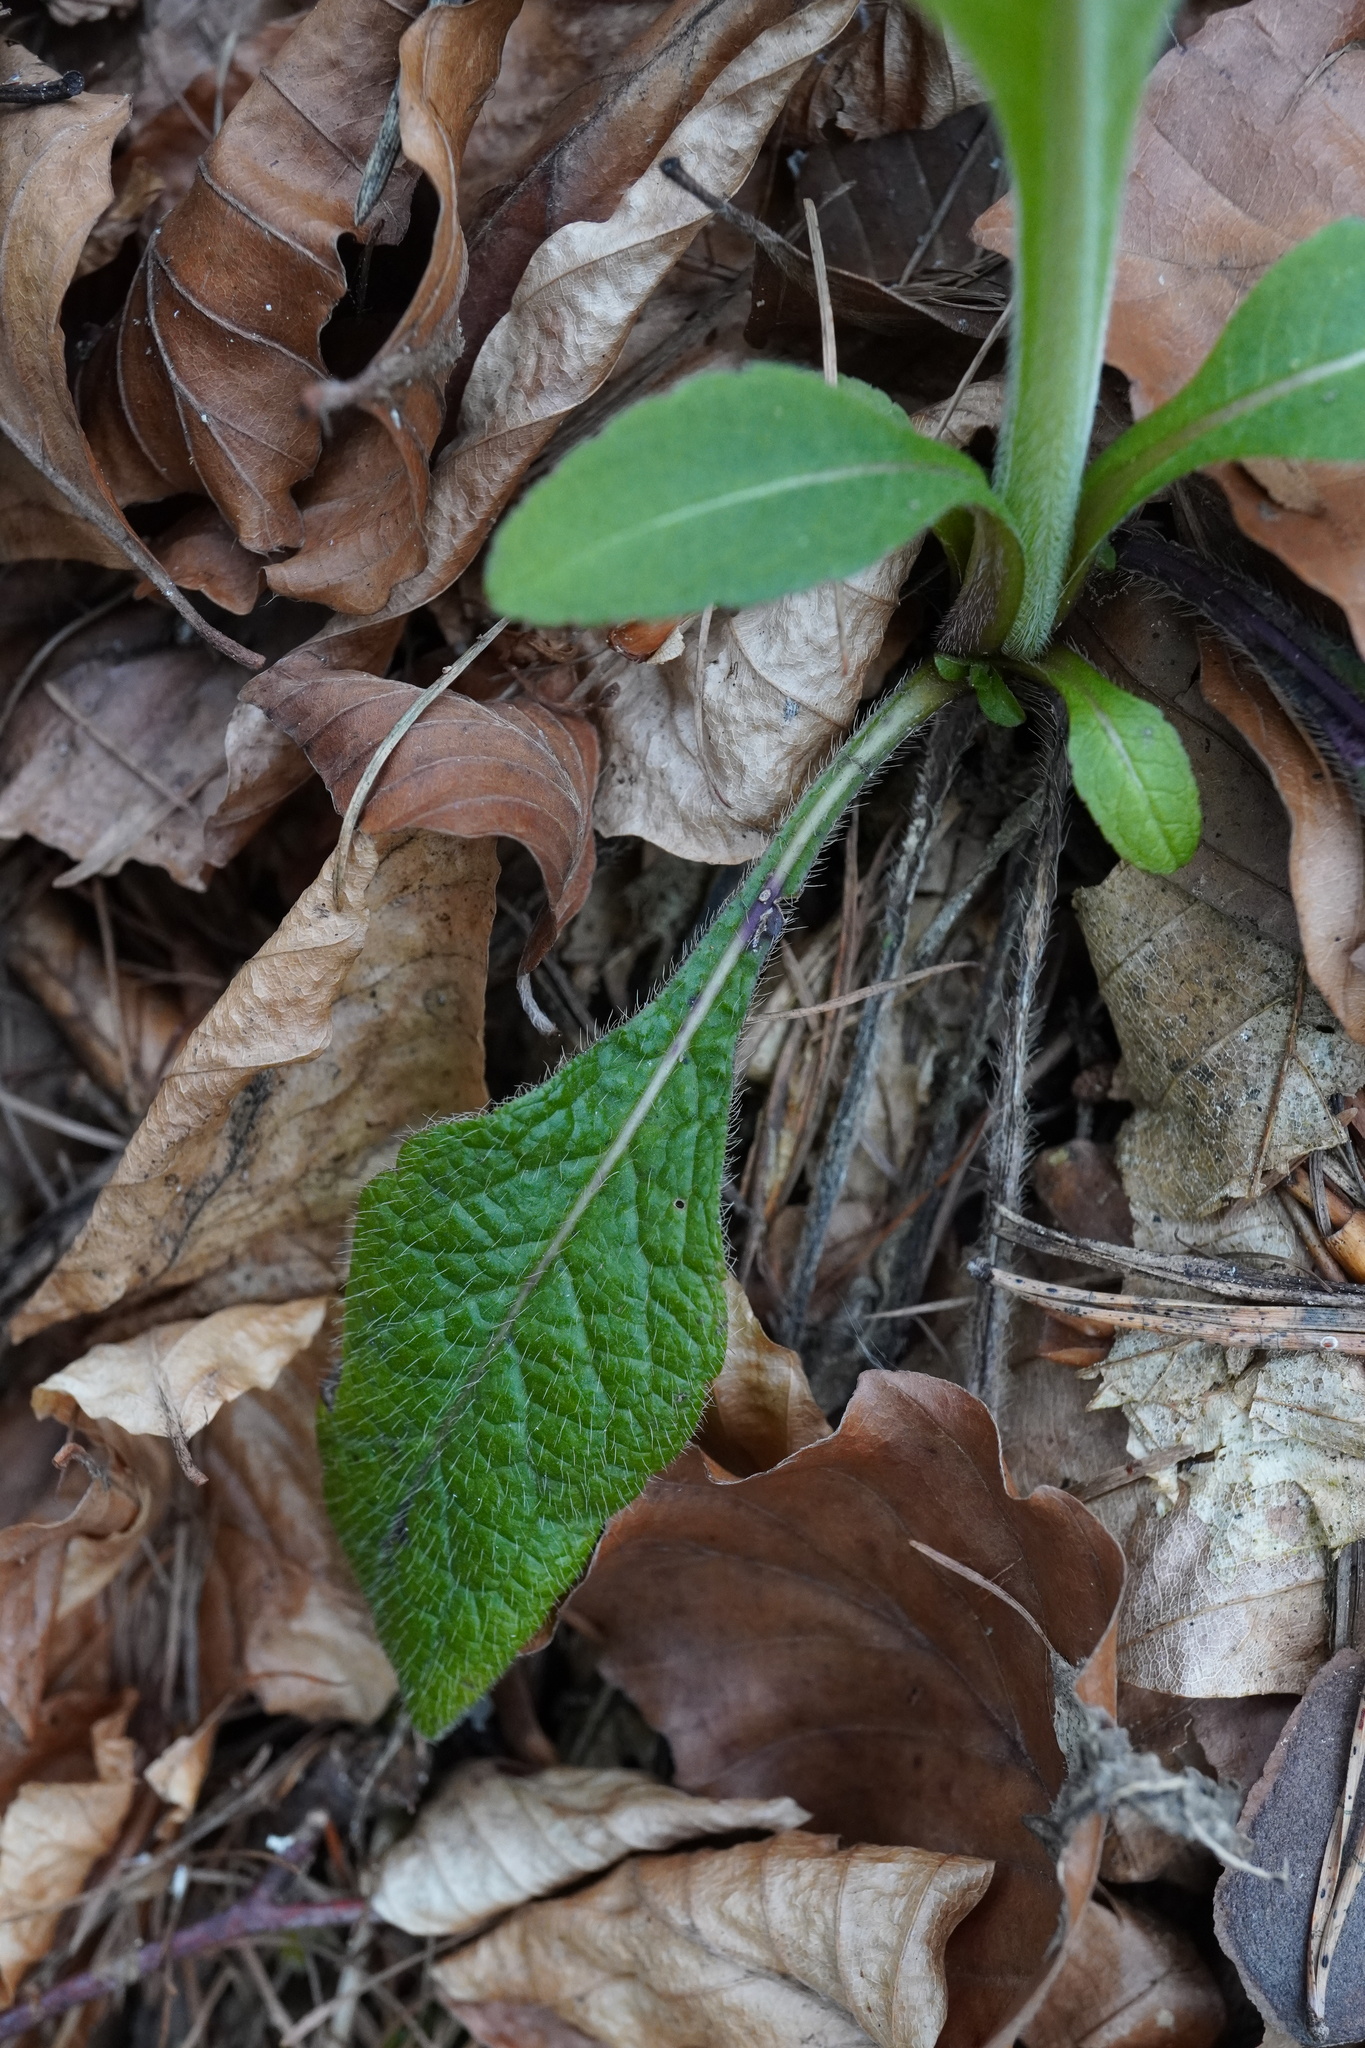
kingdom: Plantae
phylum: Tracheophyta
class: Magnoliopsida
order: Dipsacales
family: Caprifoliaceae
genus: Knautia
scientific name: Knautia dipsacifolia
